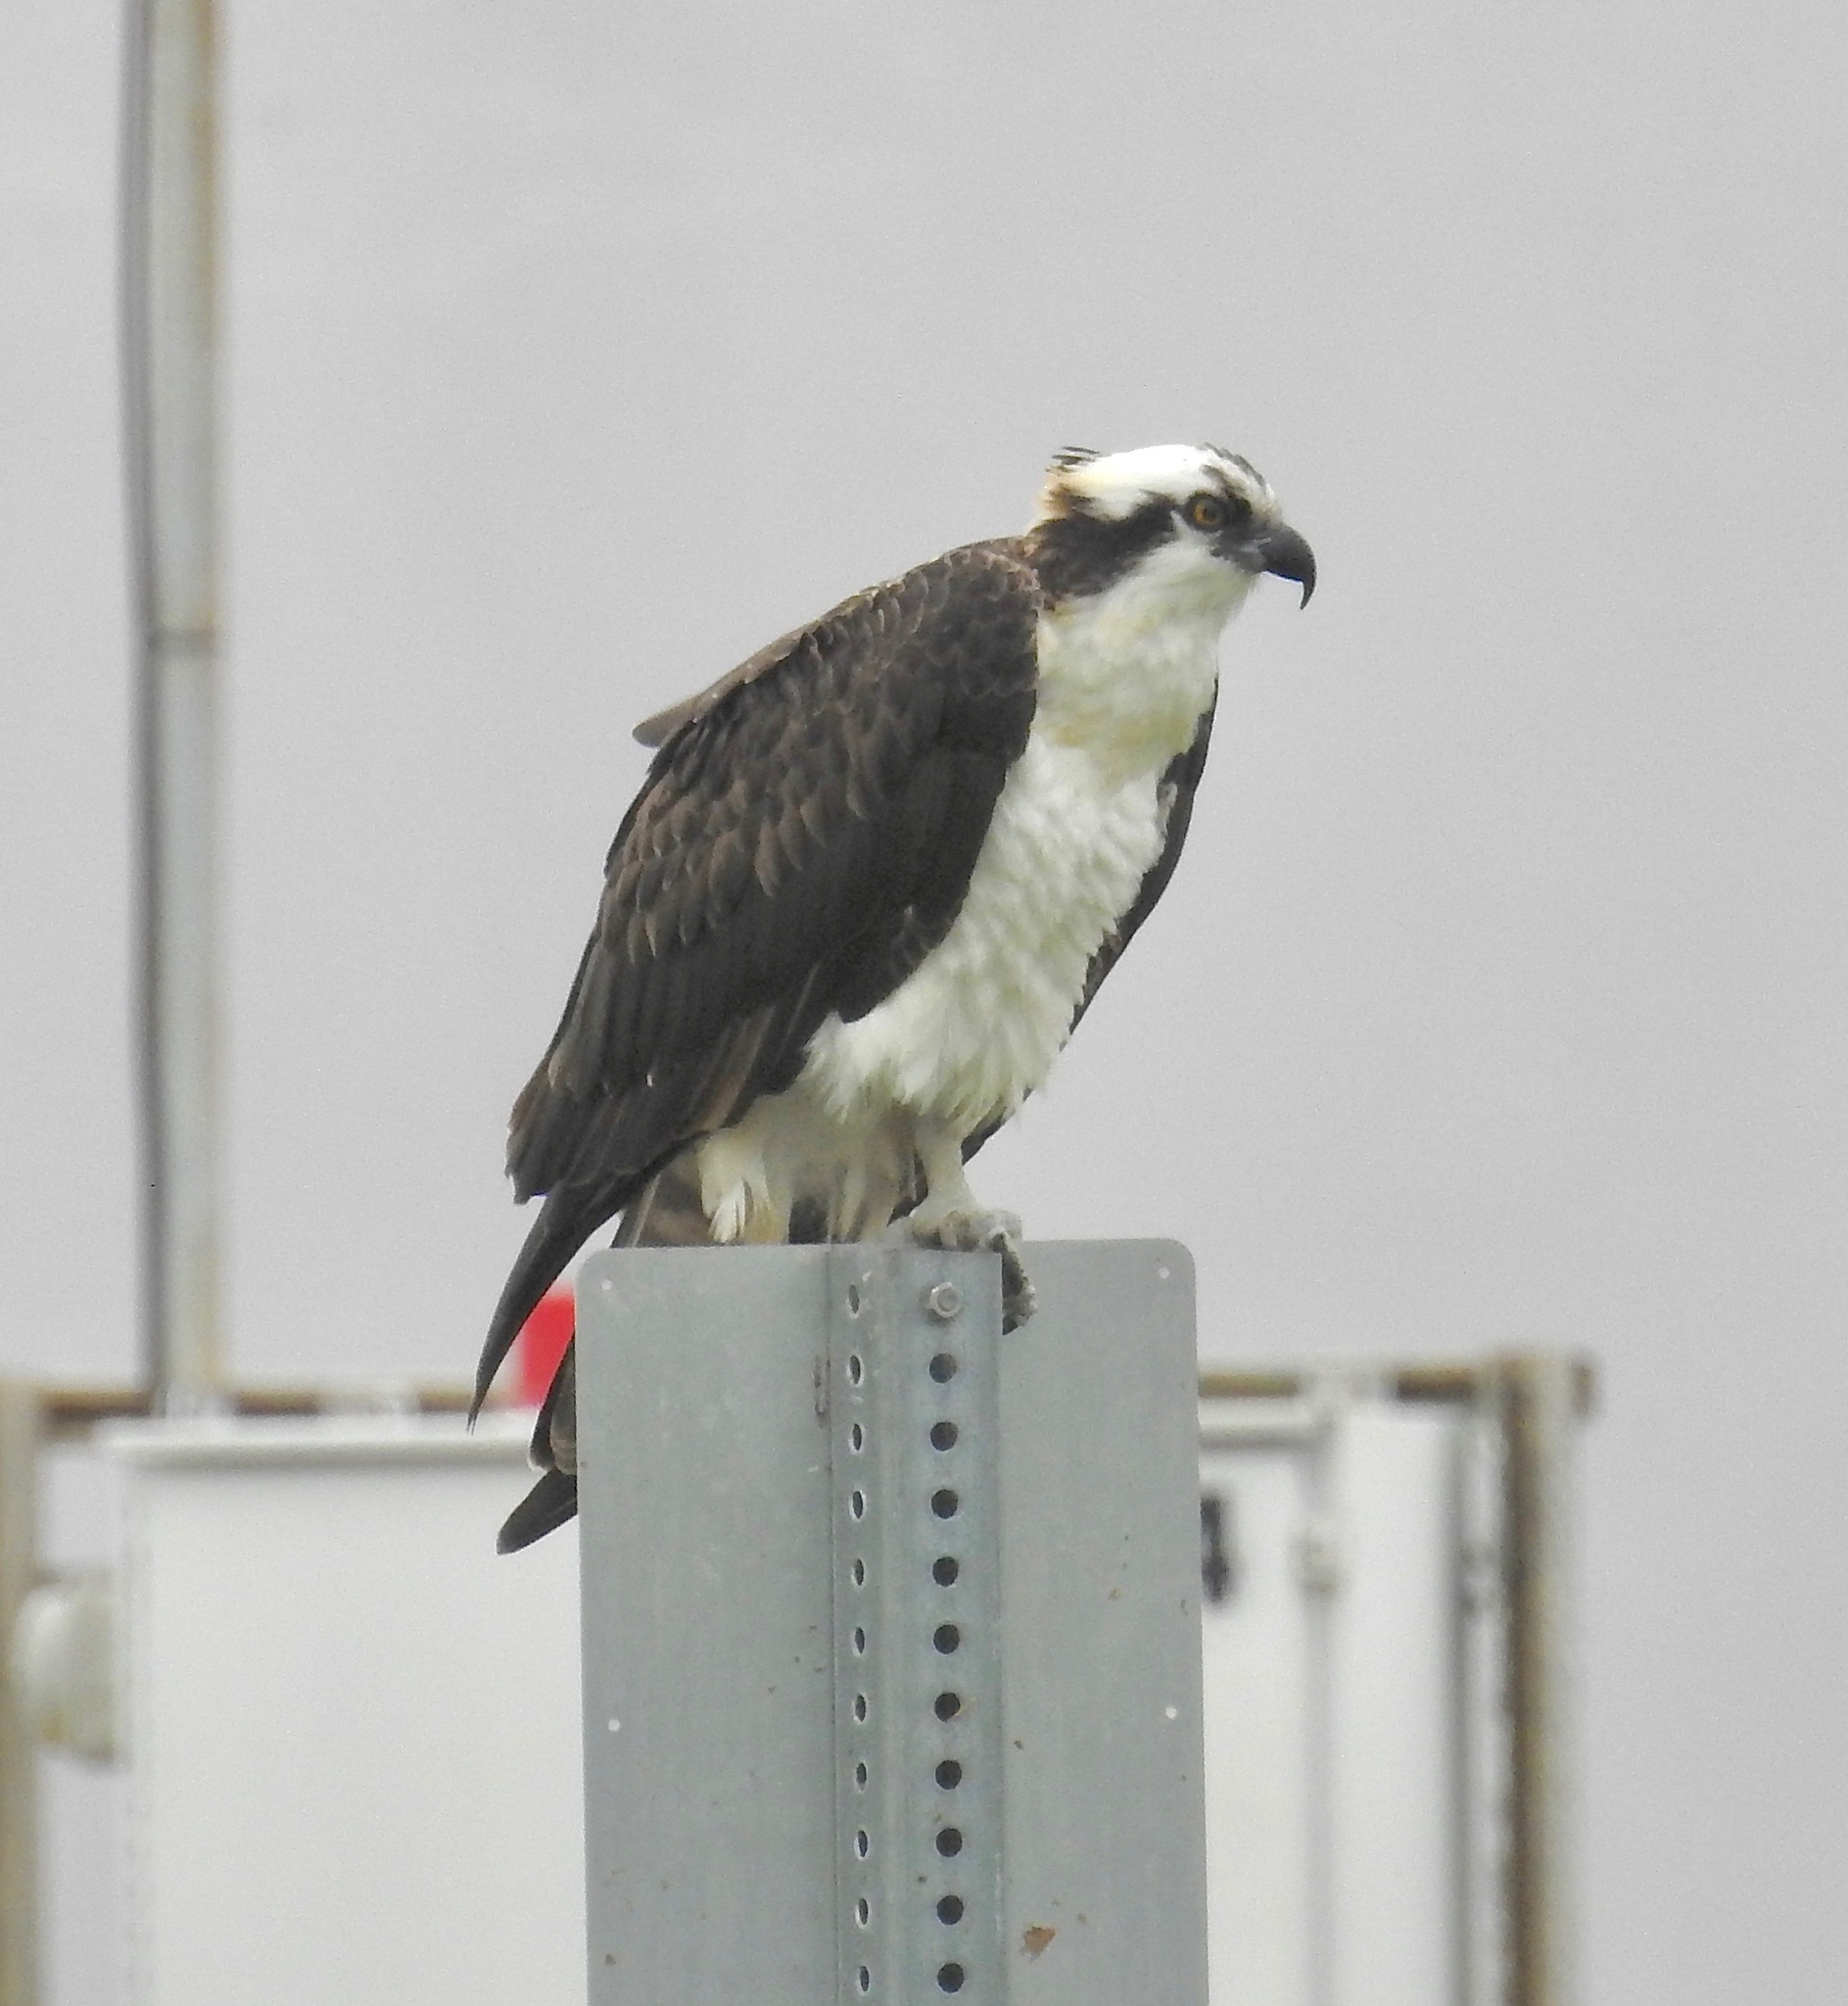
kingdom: Animalia
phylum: Chordata
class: Aves
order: Accipitriformes
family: Pandionidae
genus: Pandion
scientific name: Pandion haliaetus
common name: Osprey
